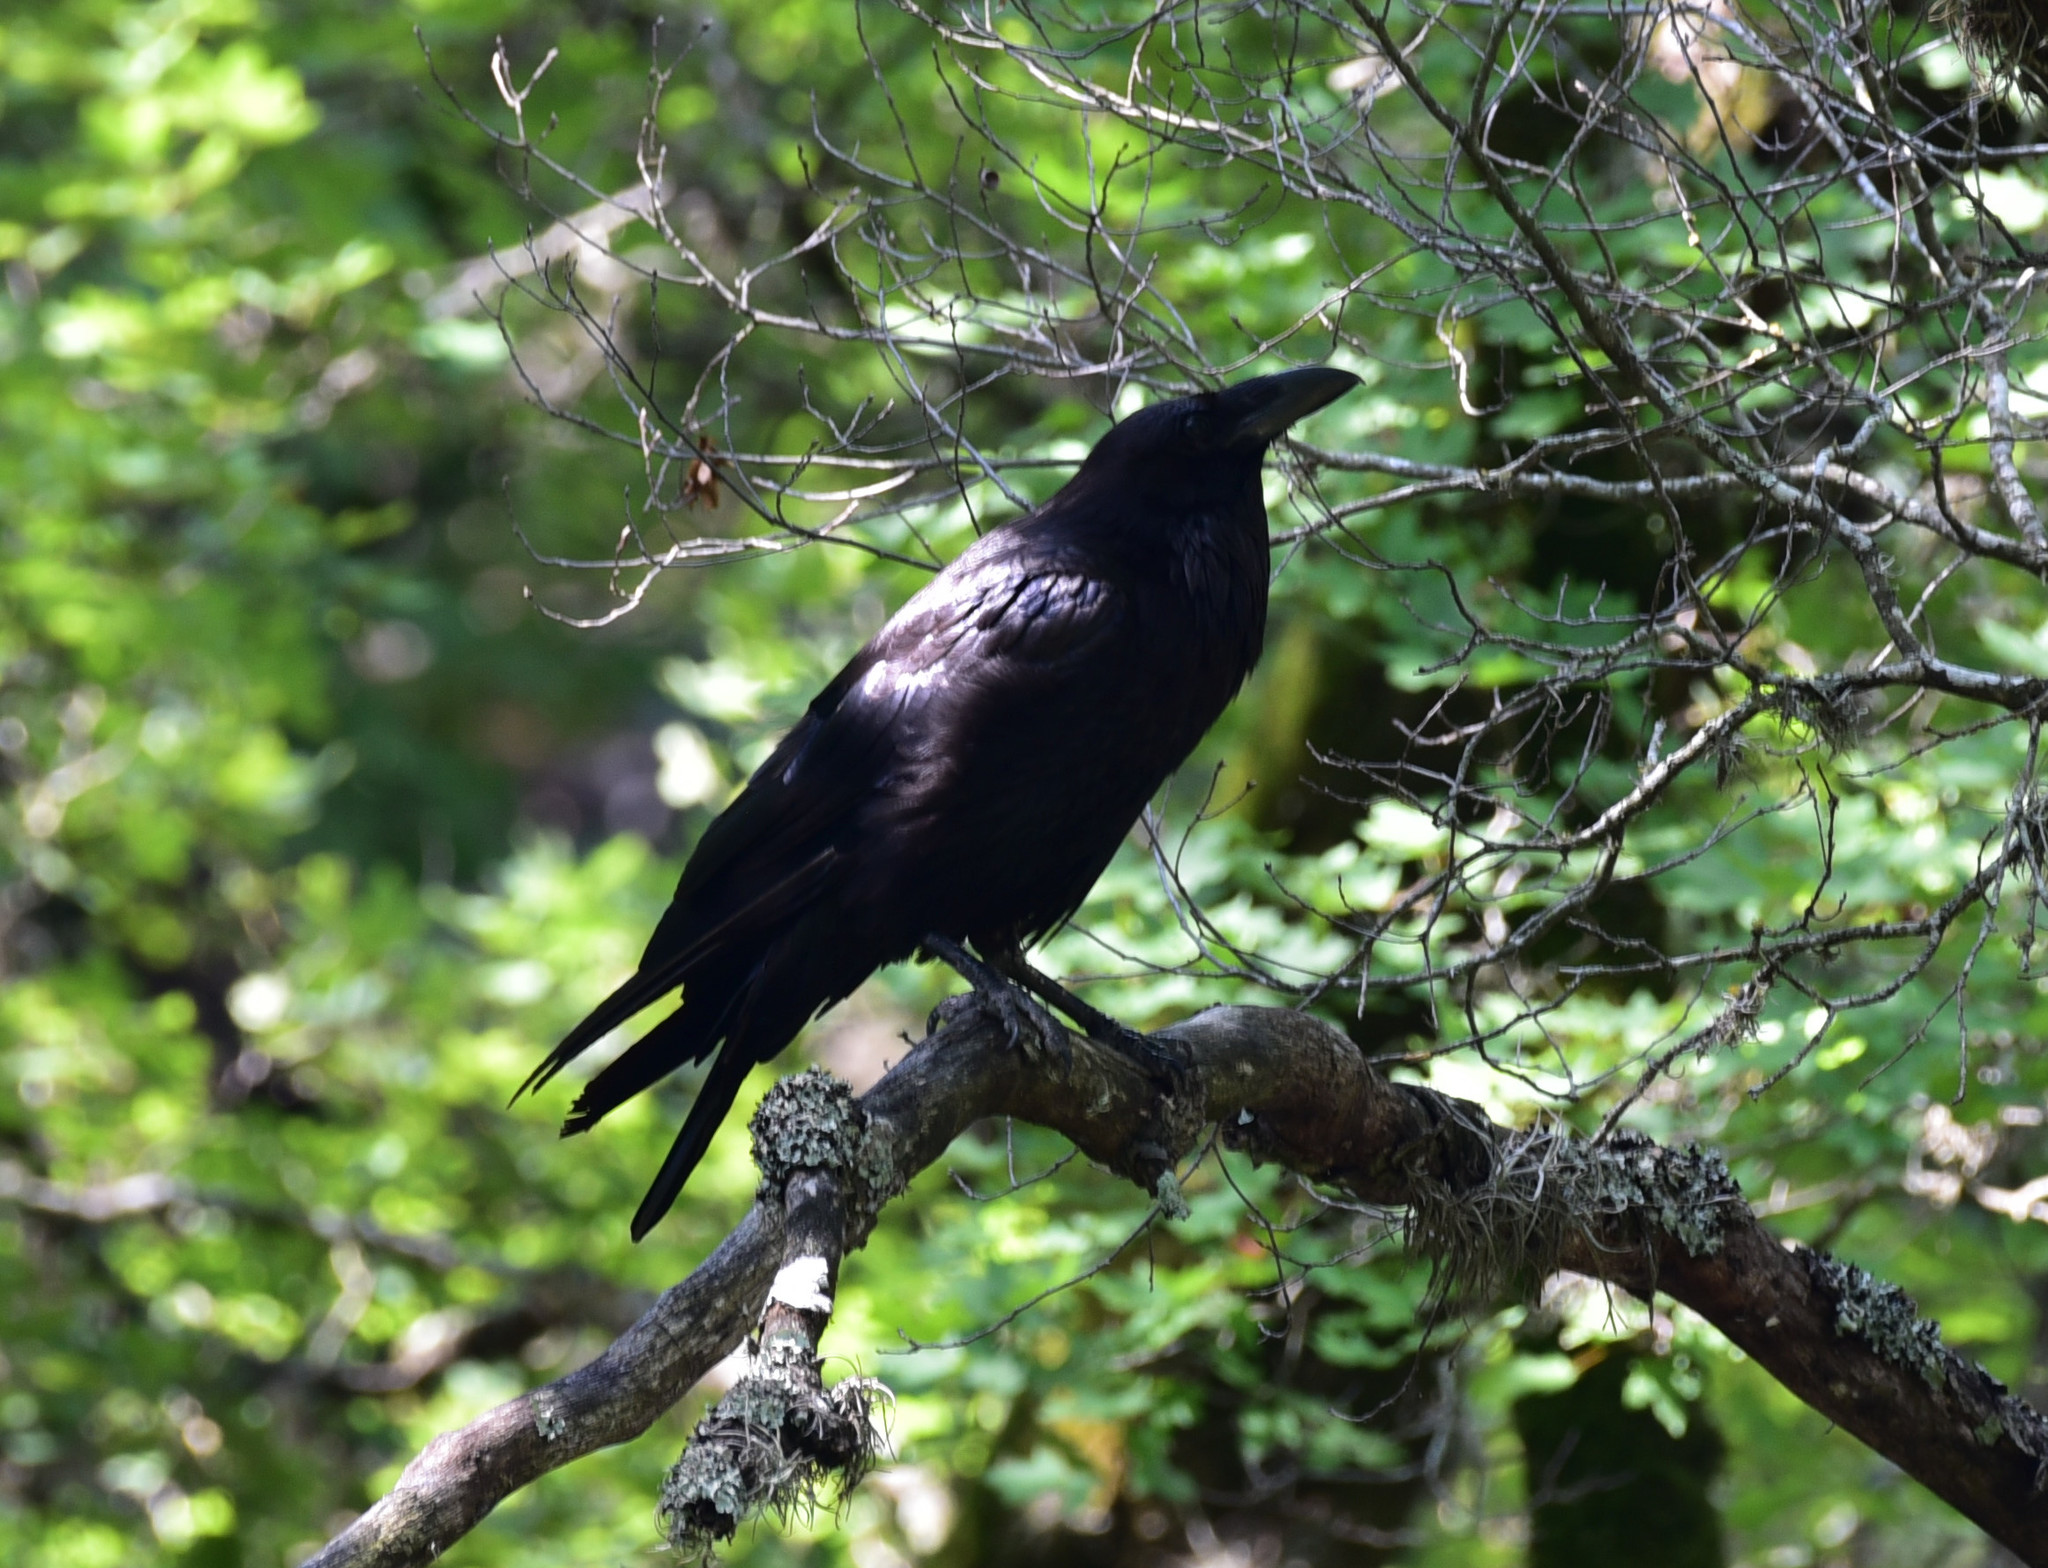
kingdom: Animalia
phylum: Chordata
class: Aves
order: Passeriformes
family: Corvidae
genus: Corvus
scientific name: Corvus corax
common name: Common raven
